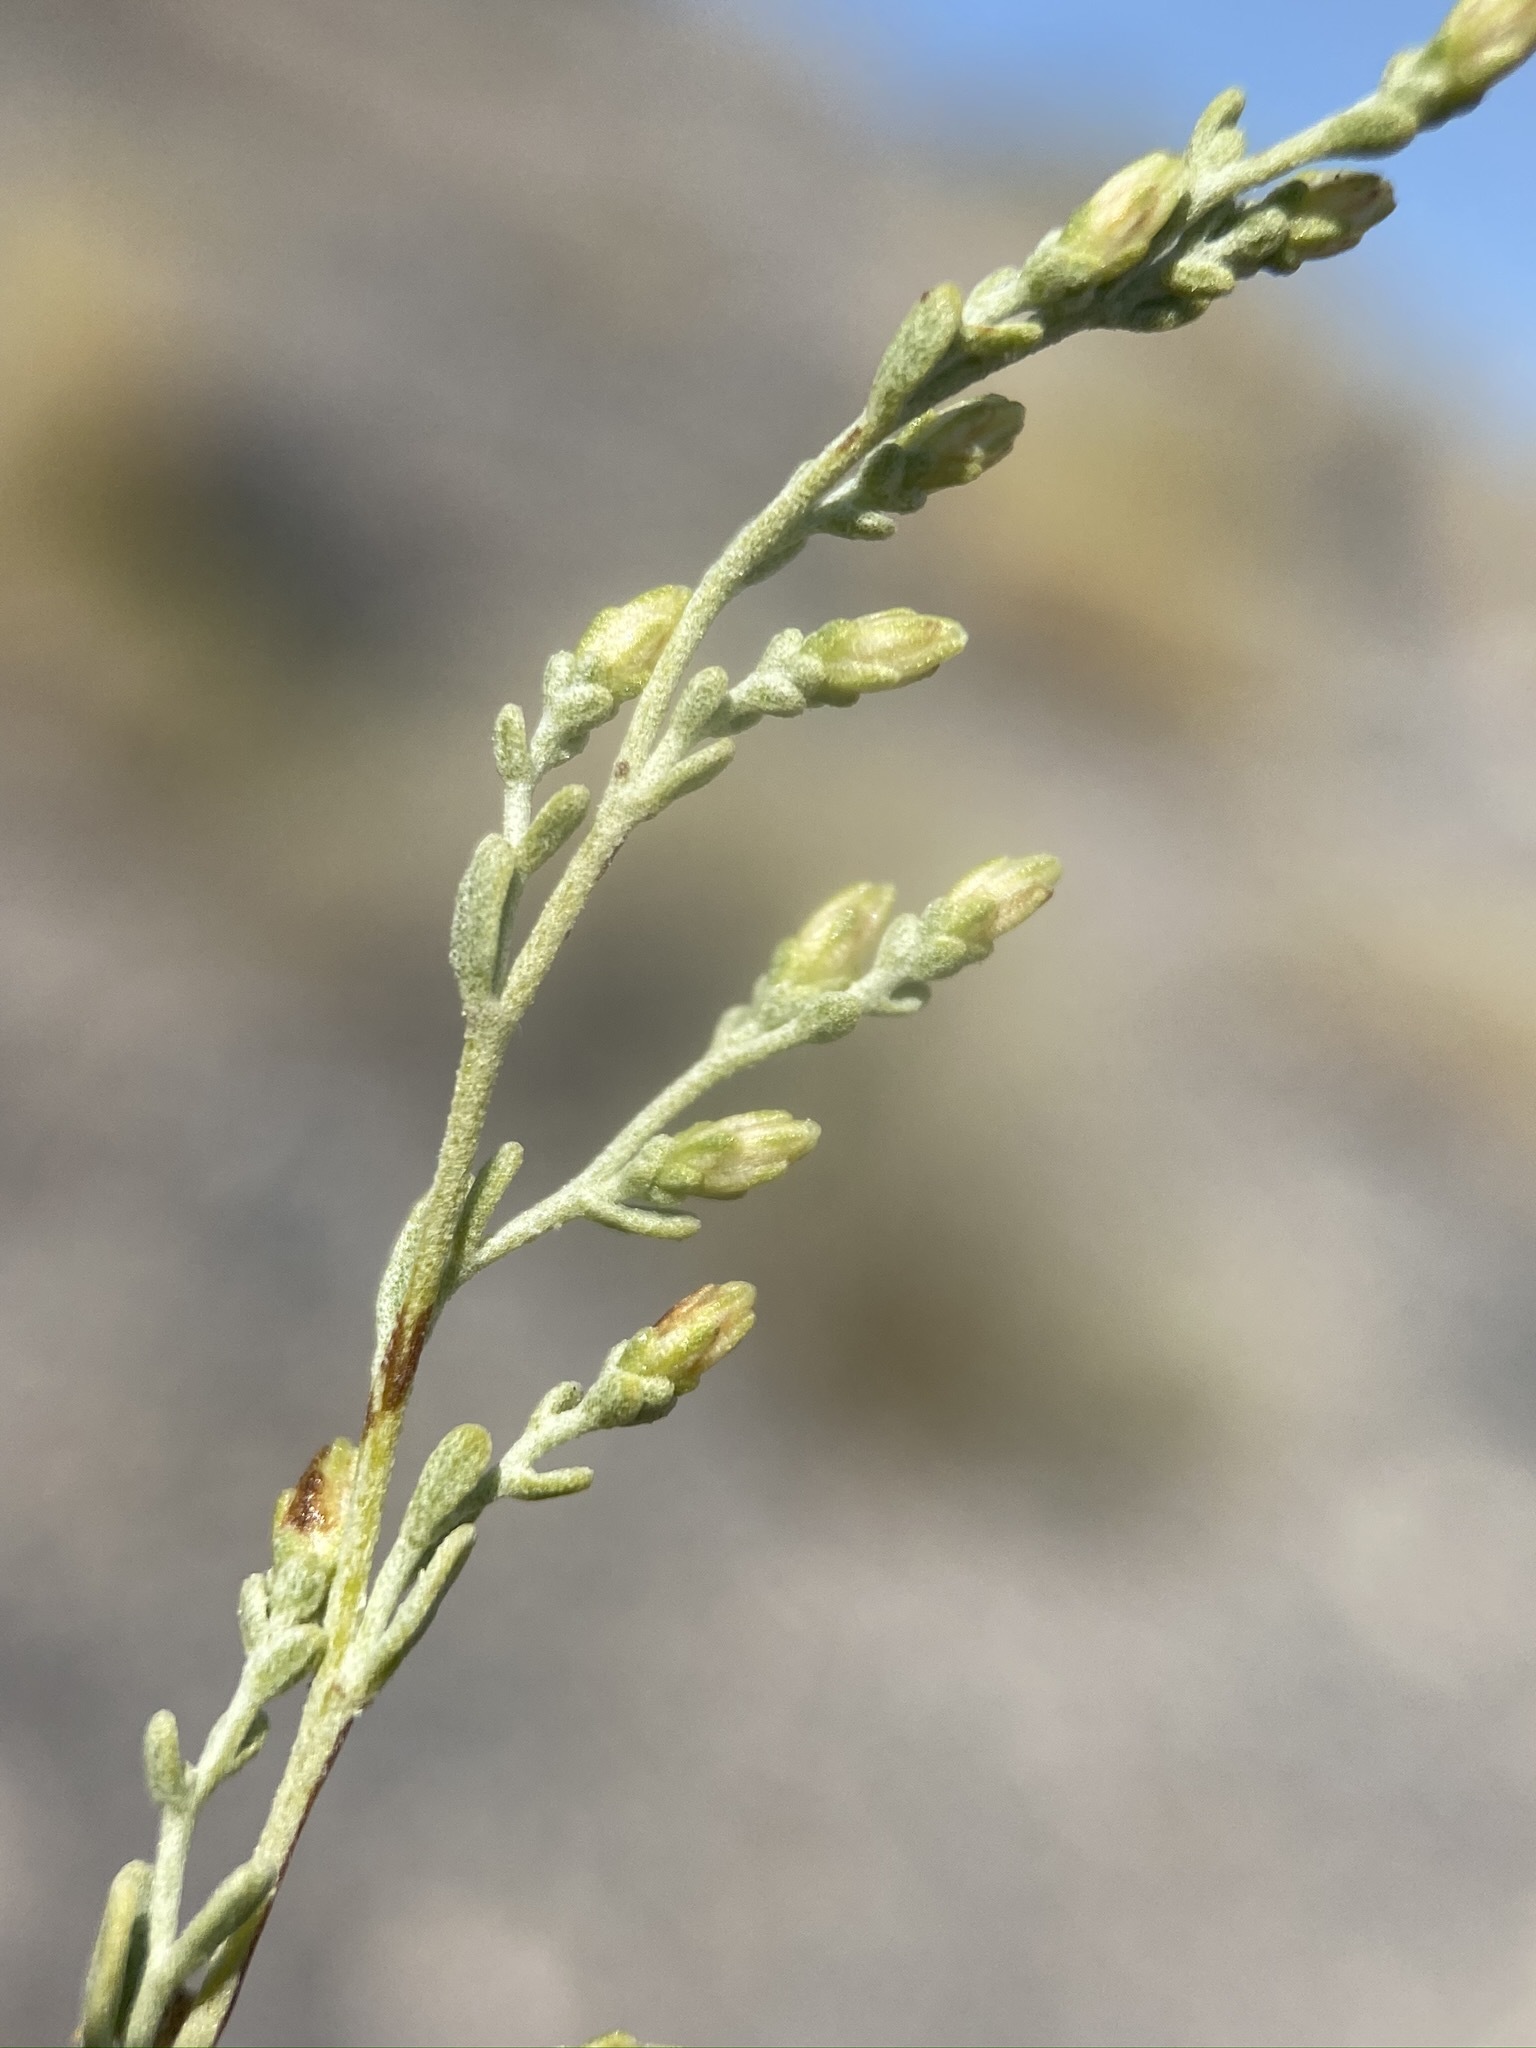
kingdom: Plantae
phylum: Tracheophyta
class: Magnoliopsida
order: Asterales
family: Asteraceae
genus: Artemisia
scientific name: Artemisia nova
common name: Black-sage
